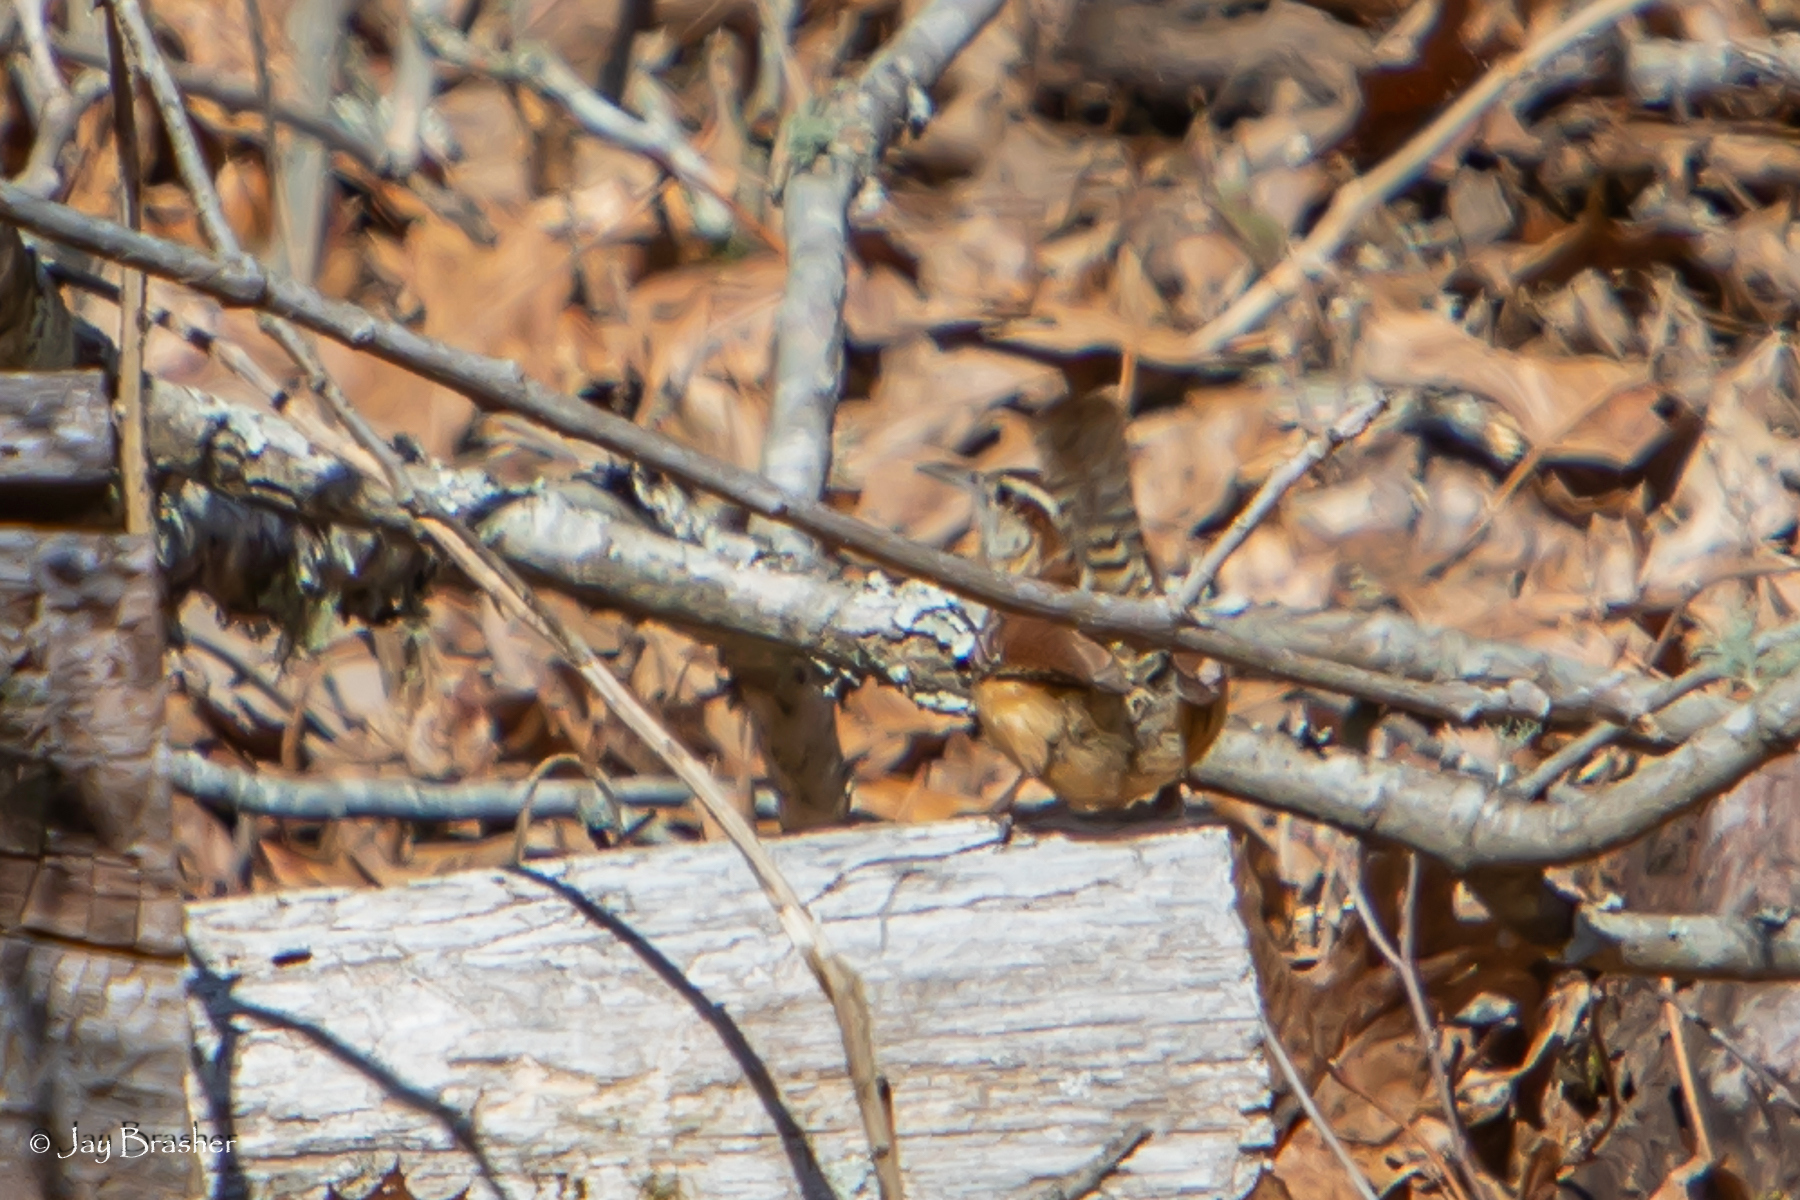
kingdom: Animalia
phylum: Chordata
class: Aves
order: Passeriformes
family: Troglodytidae
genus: Thryothorus
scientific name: Thryothorus ludovicianus
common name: Carolina wren
